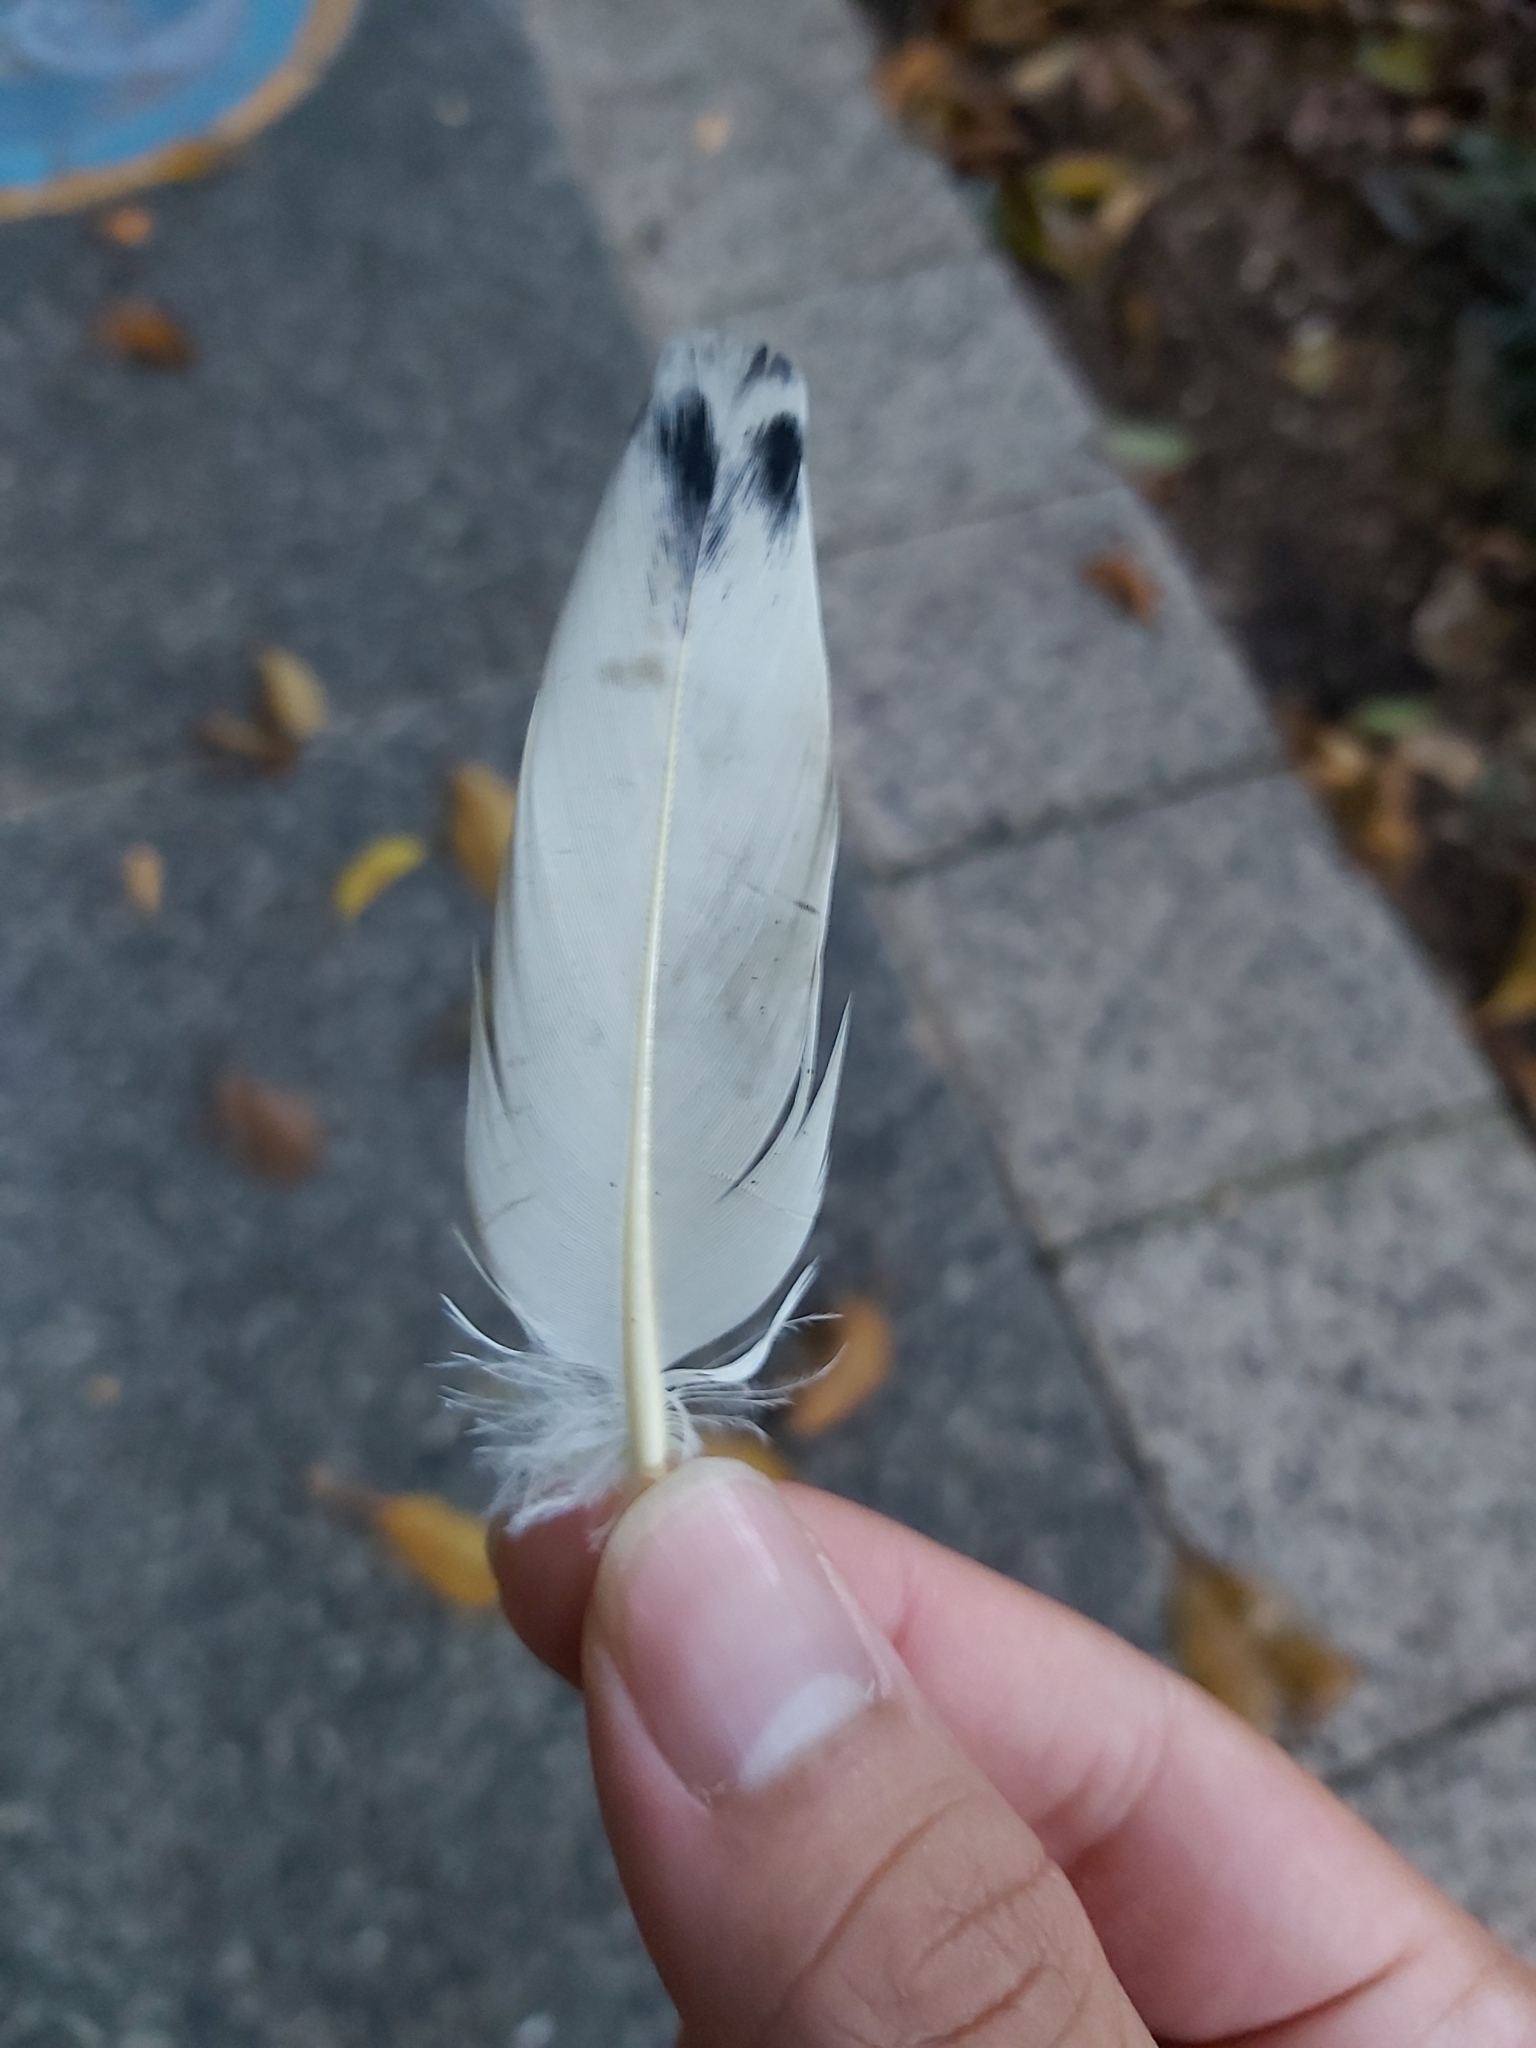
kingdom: Animalia
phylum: Chordata
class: Aves
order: Columbiformes
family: Columbidae
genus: Ducula
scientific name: Ducula spilorrhoa
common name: Torresian imperial pigeon
